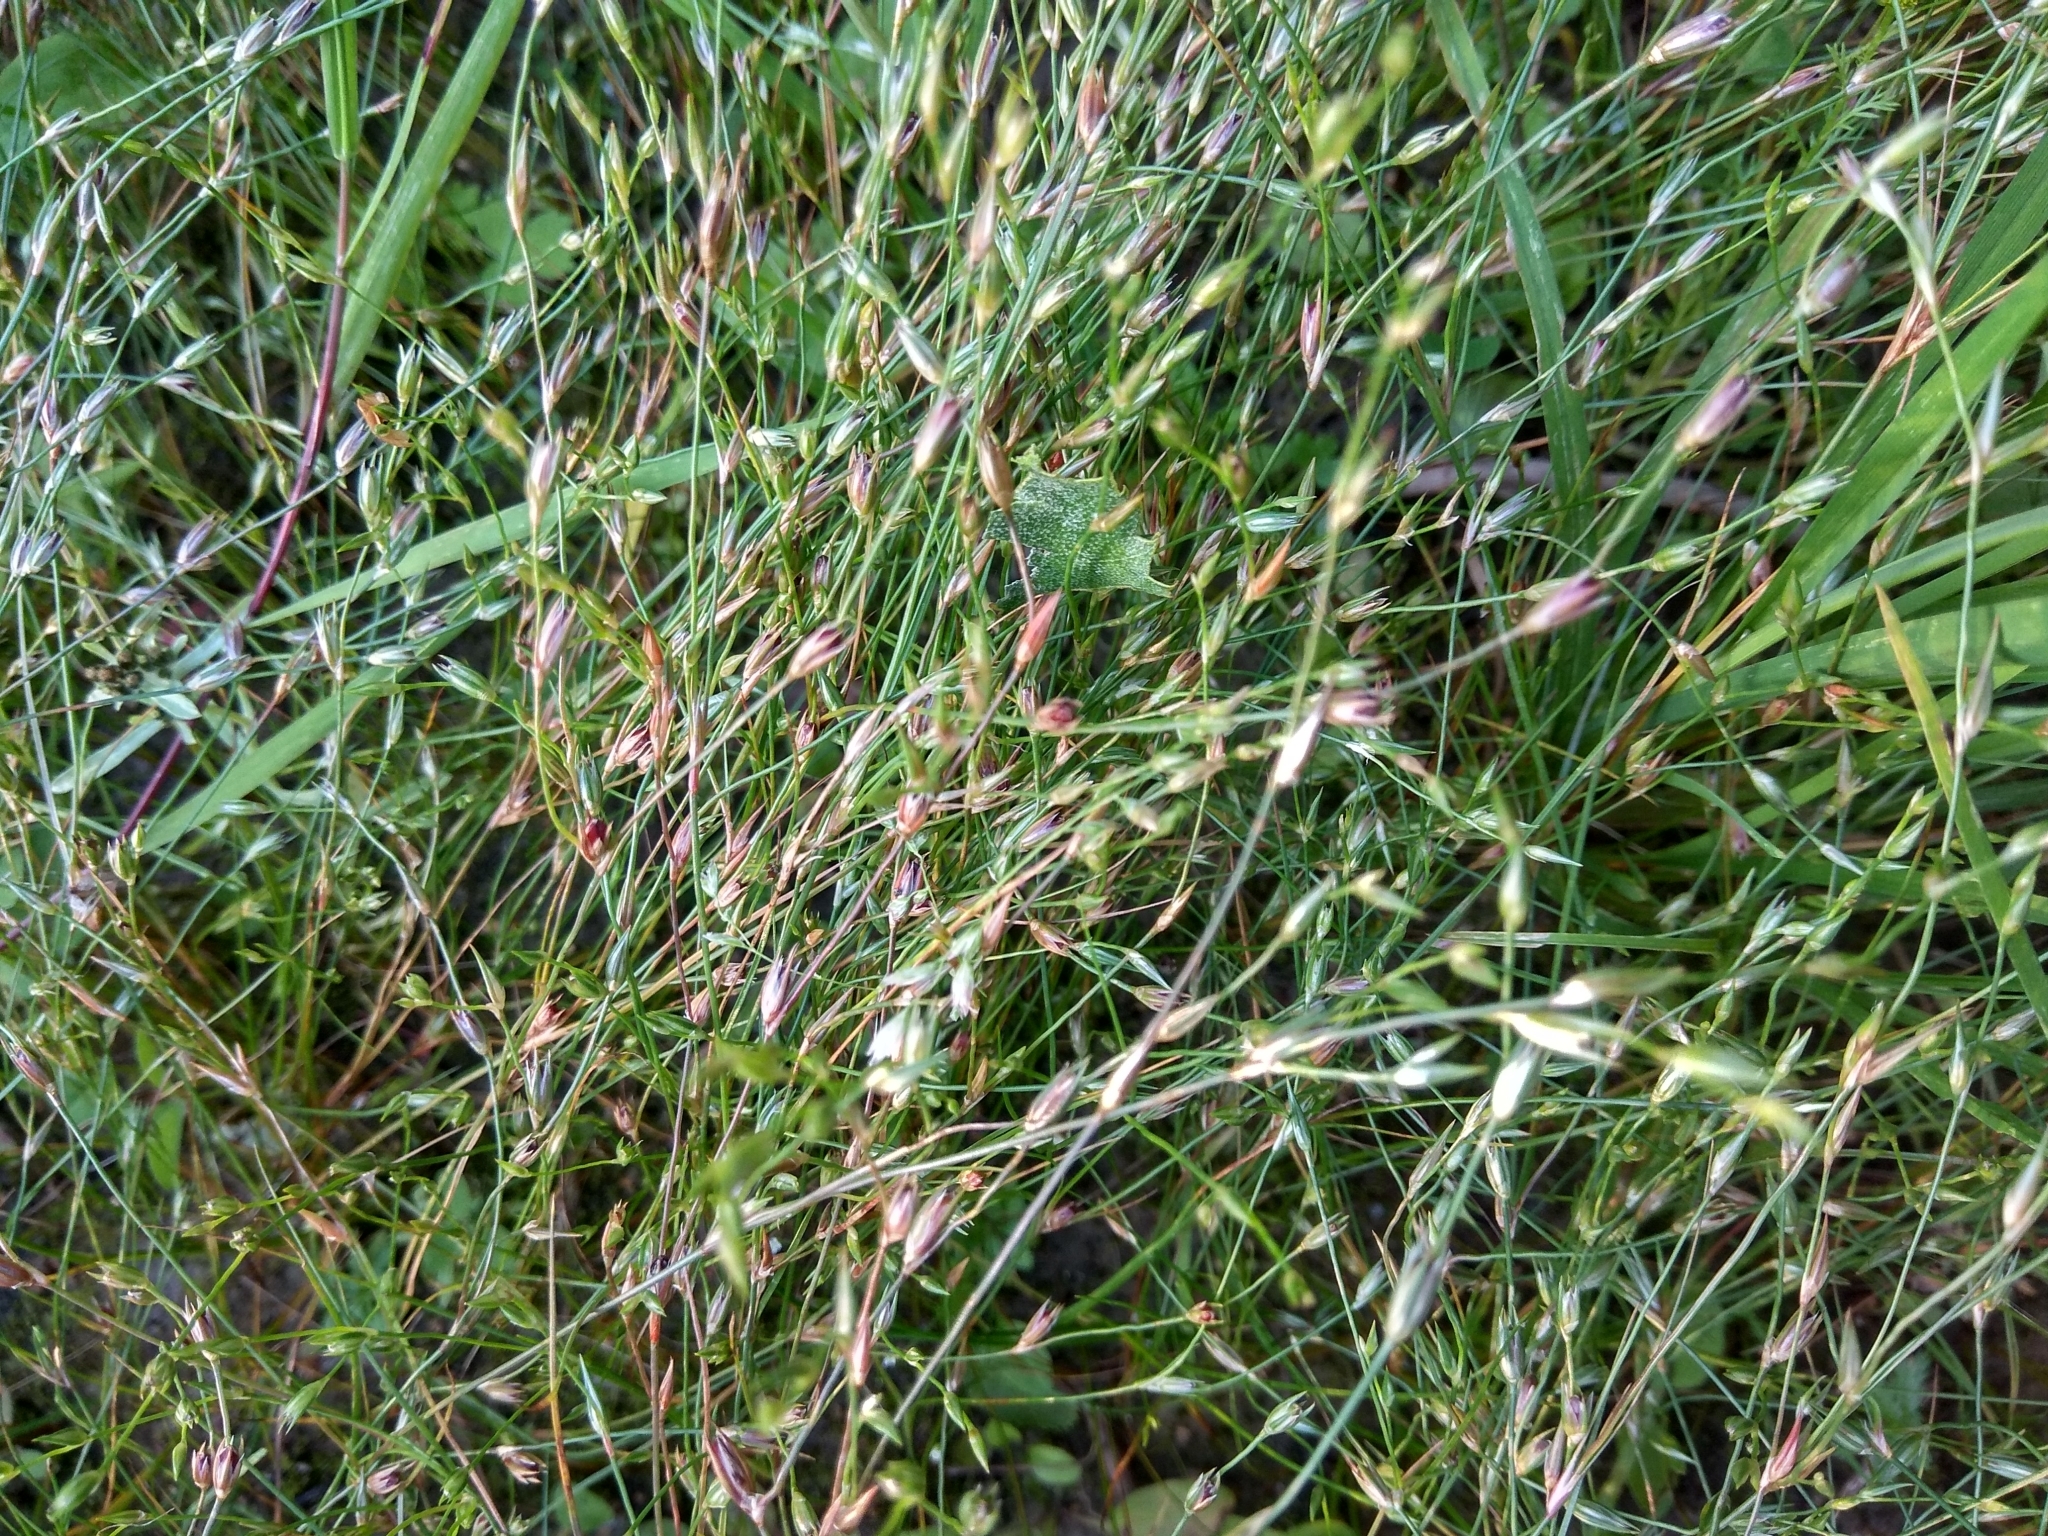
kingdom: Plantae
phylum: Tracheophyta
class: Liliopsida
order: Poales
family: Juncaceae
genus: Juncus
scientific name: Juncus bufonius
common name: Toad rush
